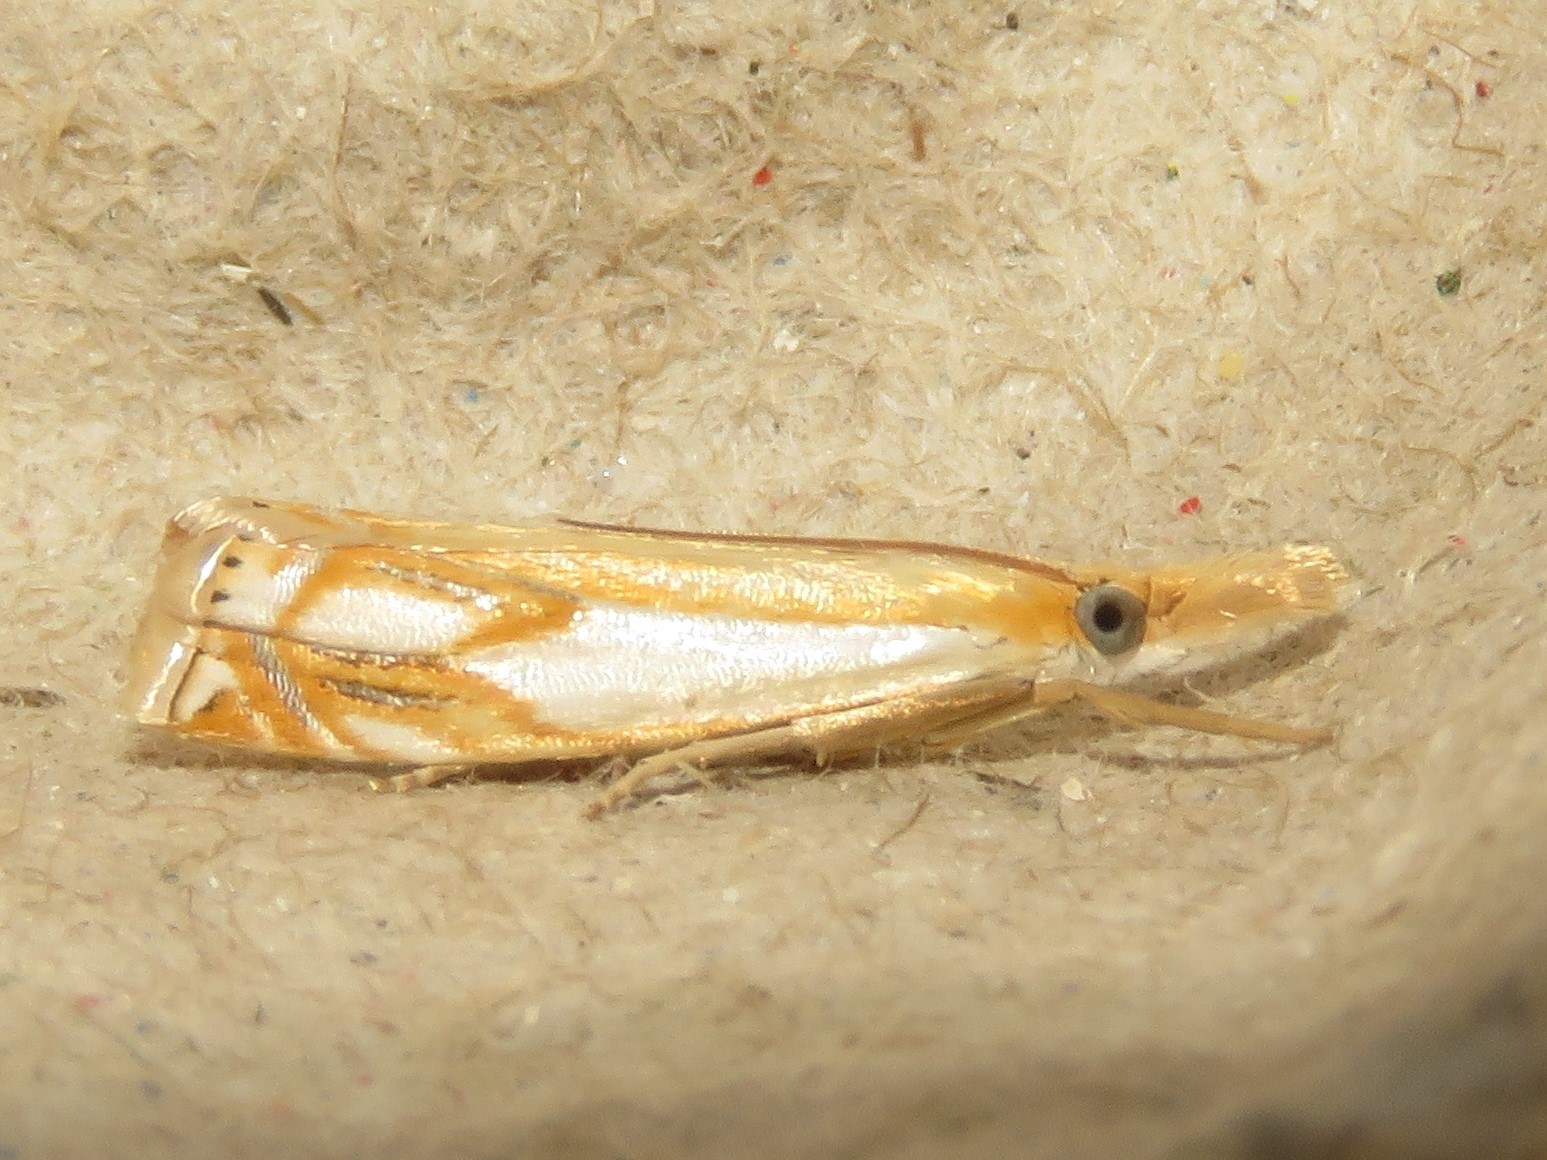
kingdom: Animalia
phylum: Arthropoda
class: Insecta
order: Lepidoptera
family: Crambidae
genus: Crambus
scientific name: Crambus agitatellus
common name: Double-banded grass-veneer
